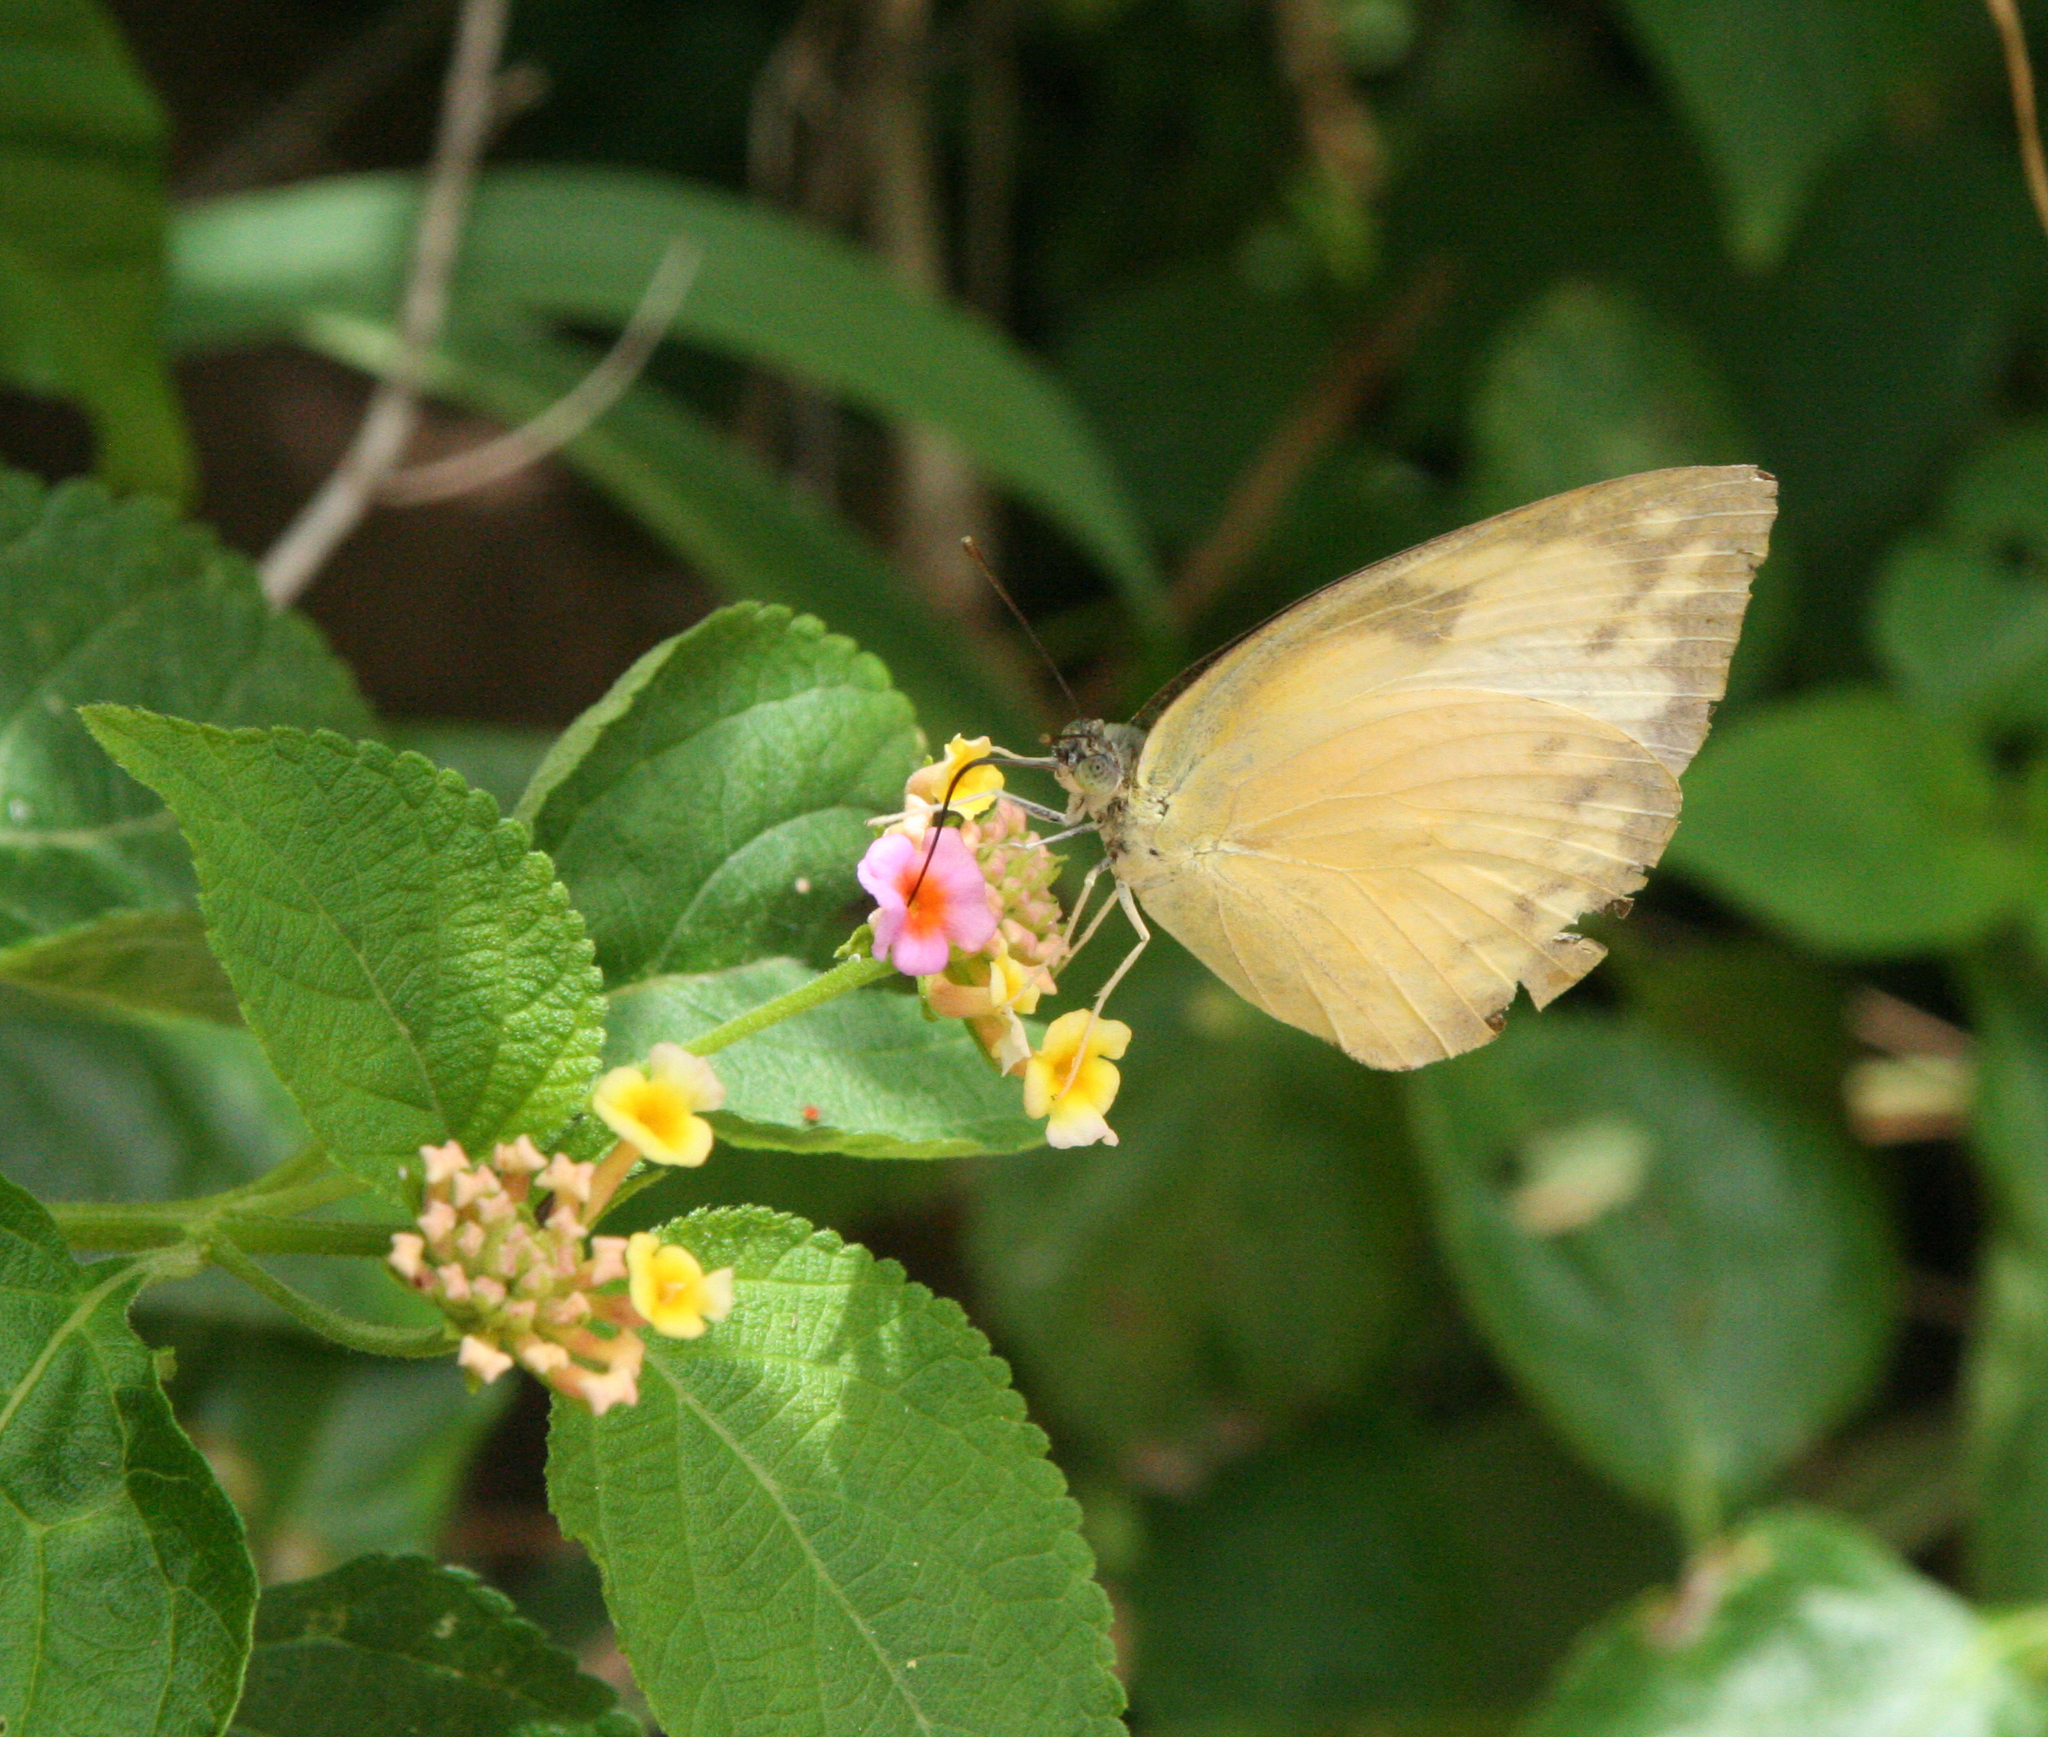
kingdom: Animalia
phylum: Arthropoda
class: Insecta
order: Lepidoptera
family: Pieridae
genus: Catopsilia
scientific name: Catopsilia pomona
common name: Common emigrant
